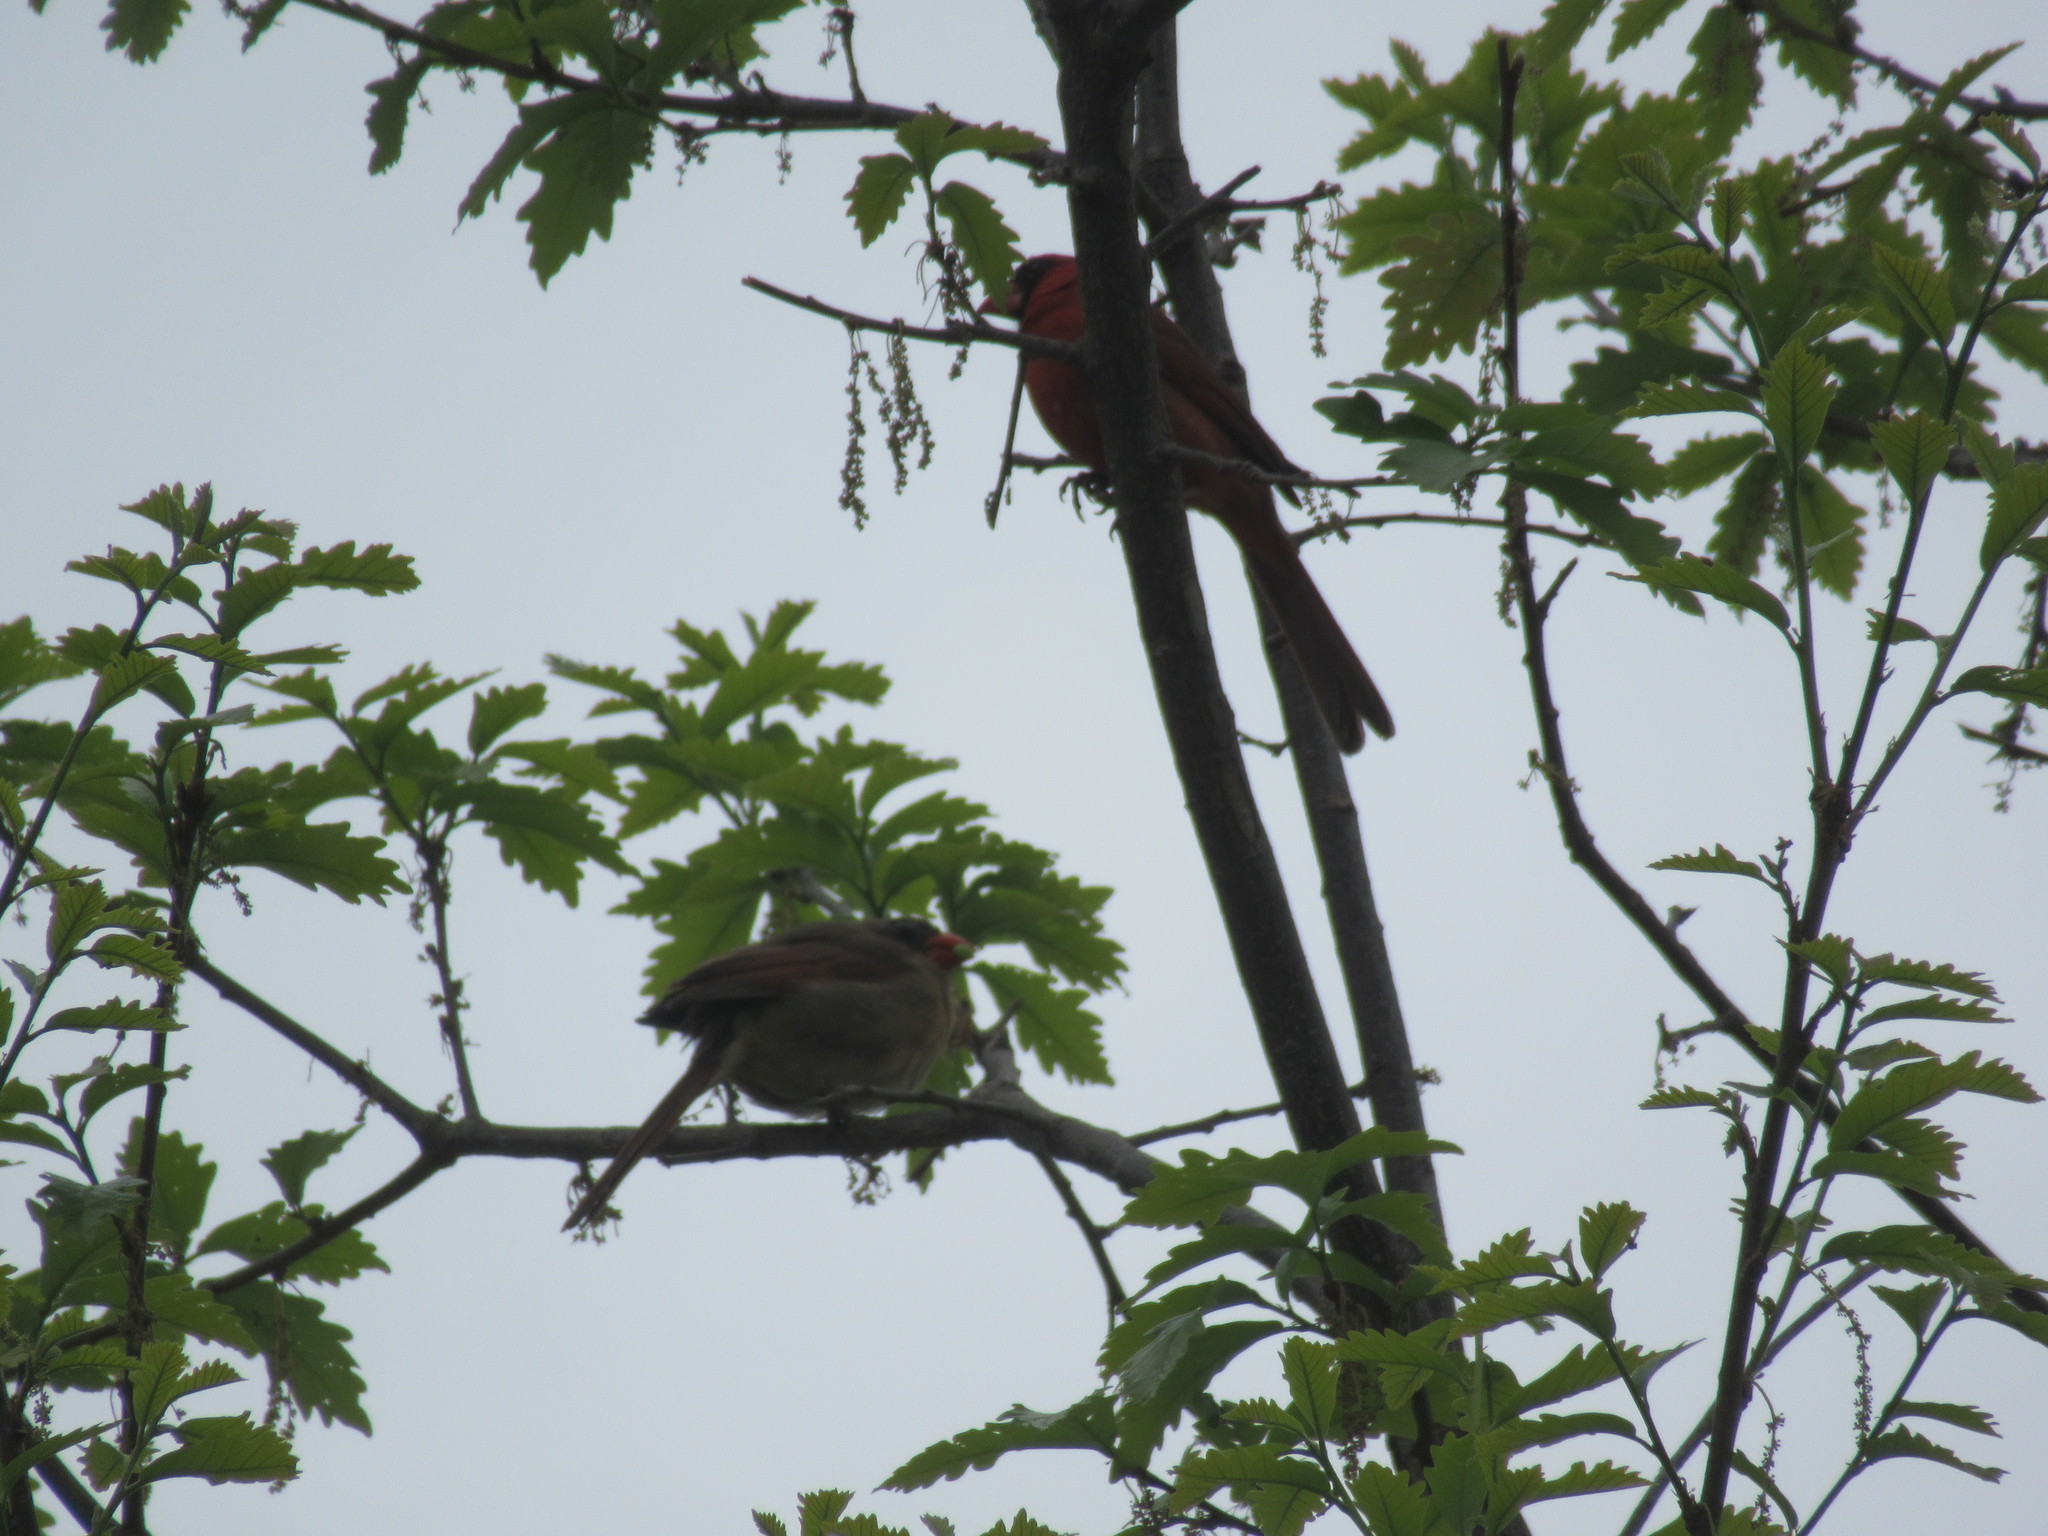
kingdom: Animalia
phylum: Chordata
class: Aves
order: Passeriformes
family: Cardinalidae
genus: Cardinalis
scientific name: Cardinalis cardinalis
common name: Northern cardinal
